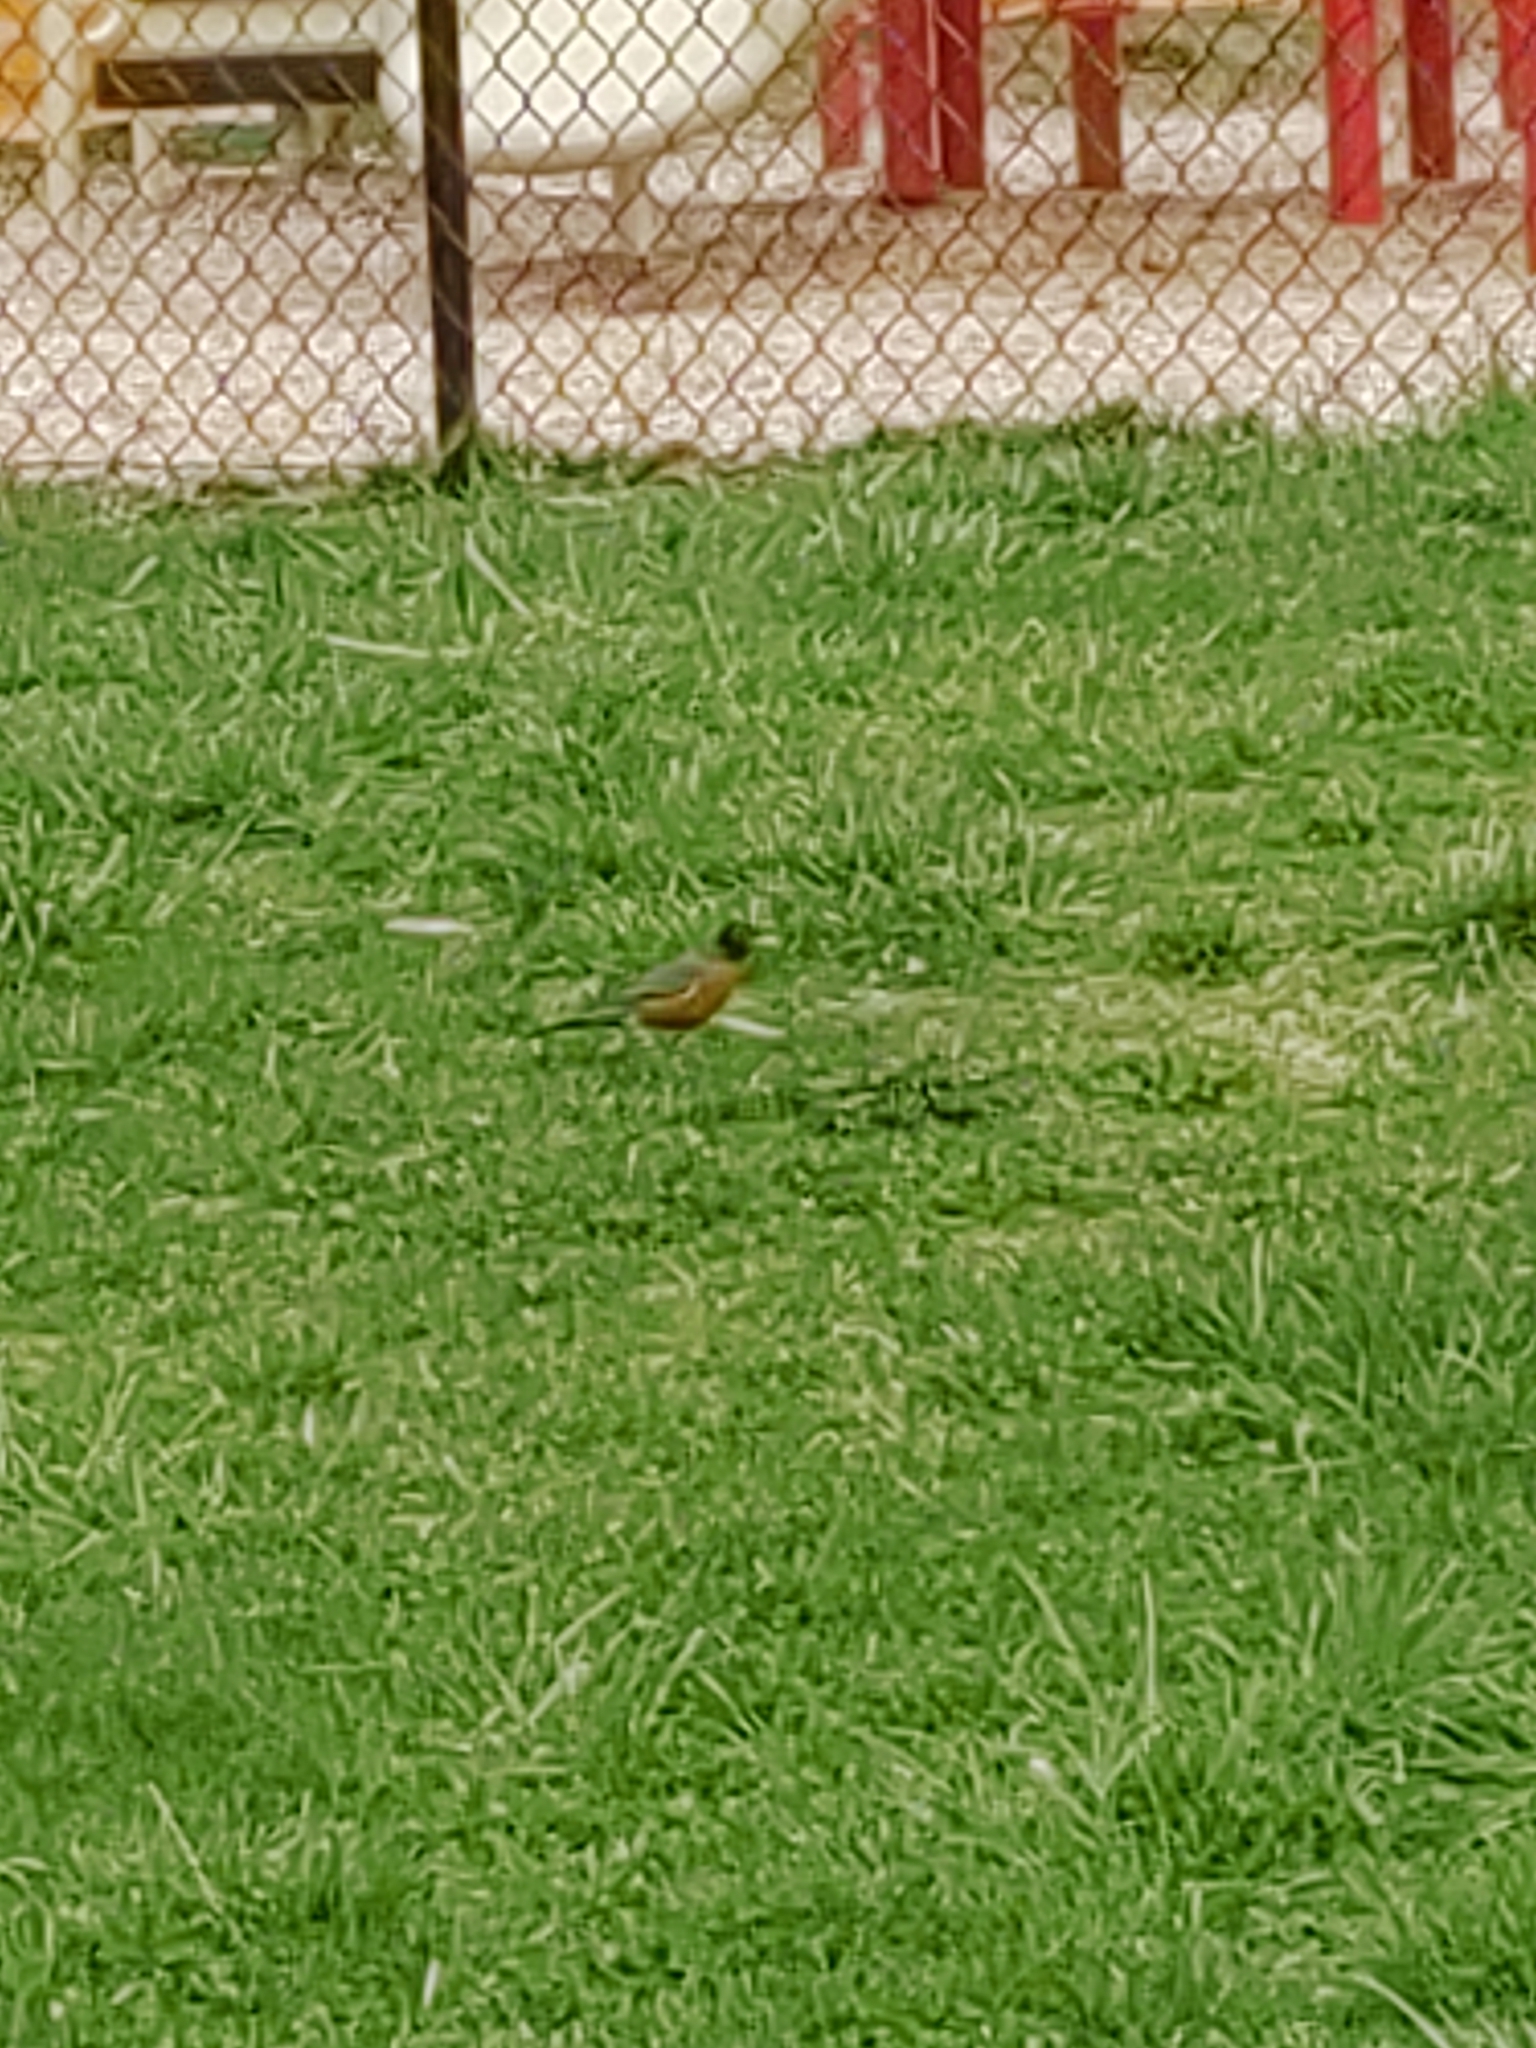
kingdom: Animalia
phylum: Chordata
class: Aves
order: Passeriformes
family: Turdidae
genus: Turdus
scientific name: Turdus migratorius
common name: American robin
